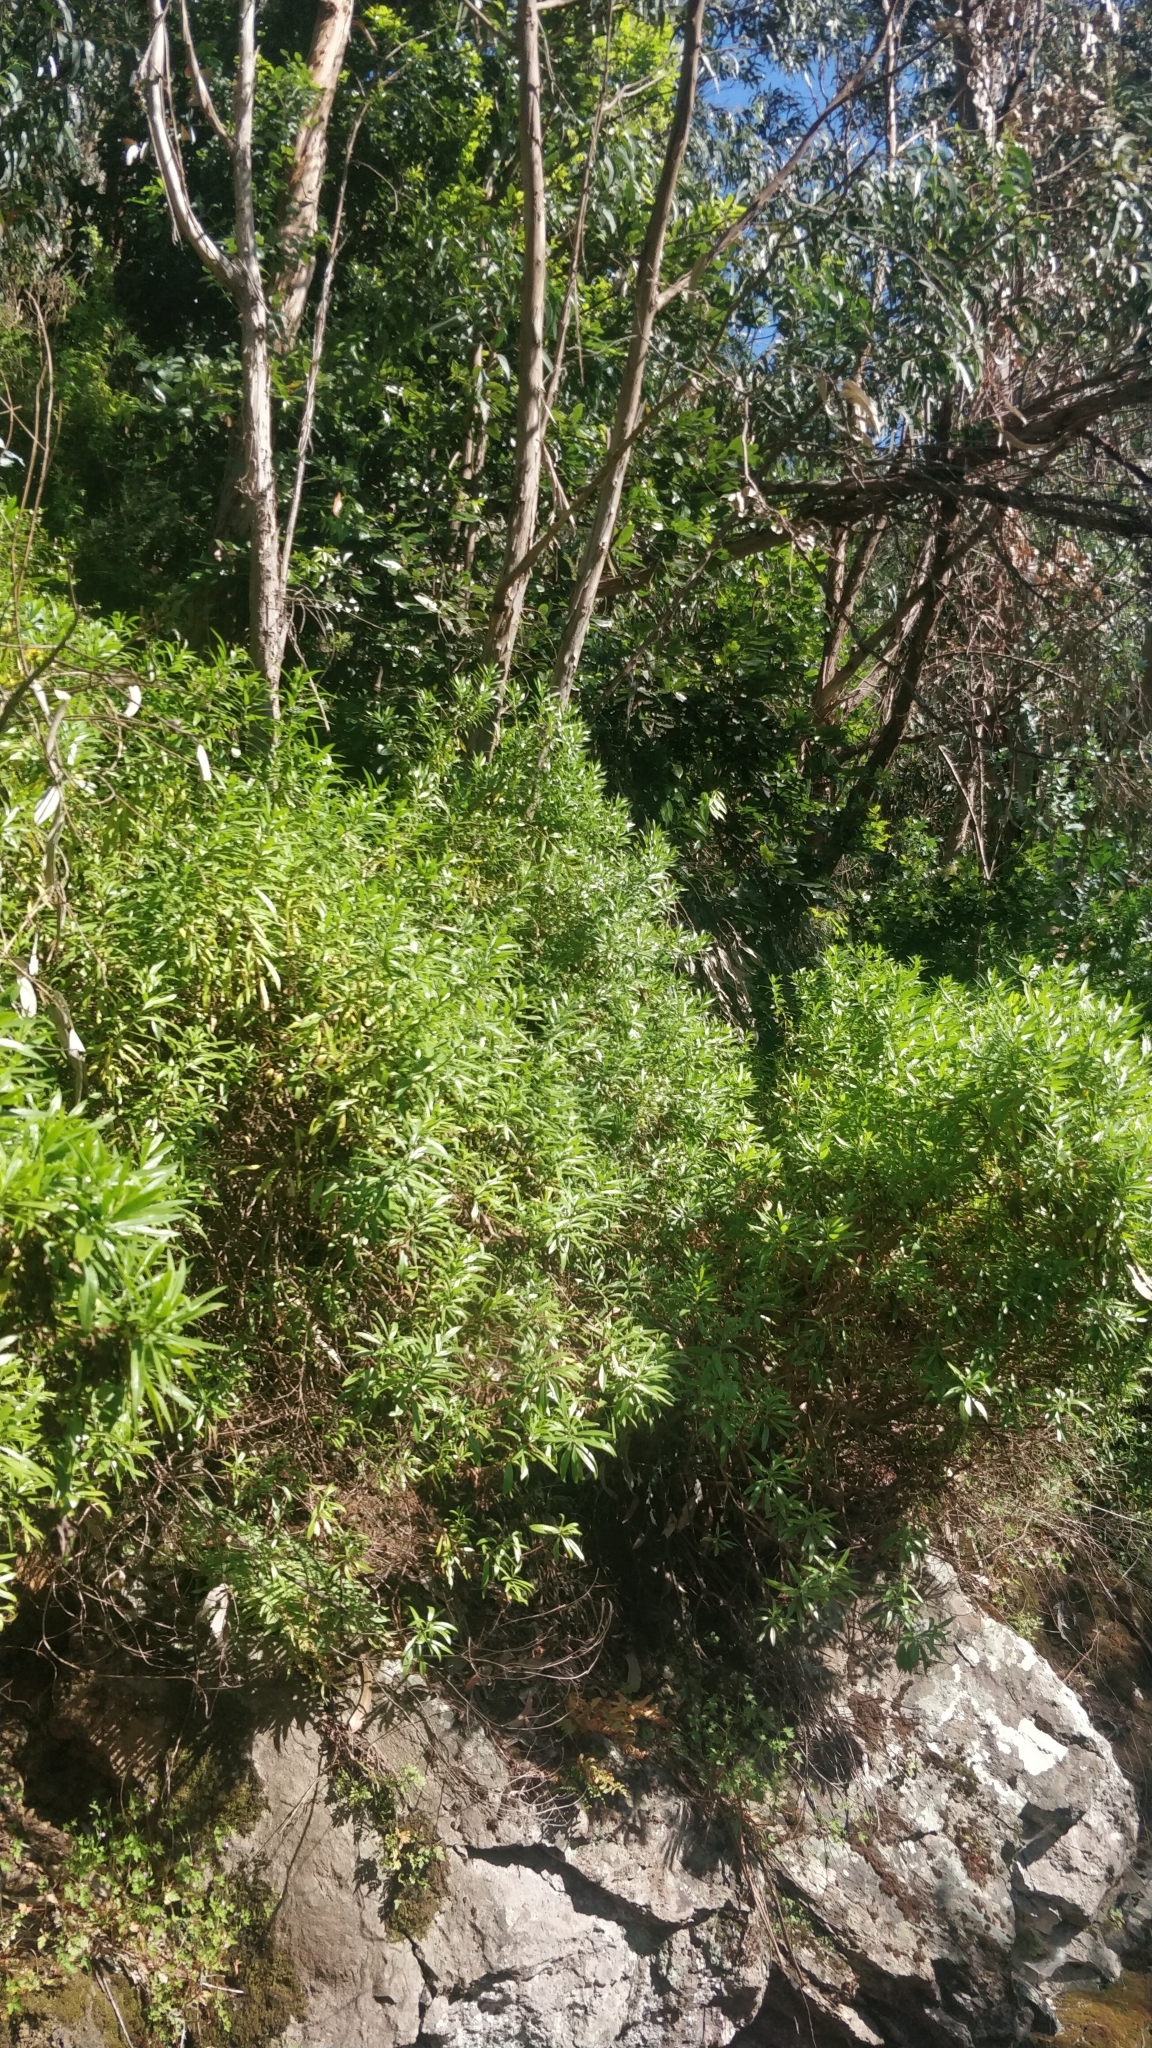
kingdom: Plantae
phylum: Tracheophyta
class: Magnoliopsida
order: Lamiales
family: Plantaginaceae
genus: Globularia
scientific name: Globularia salicina
